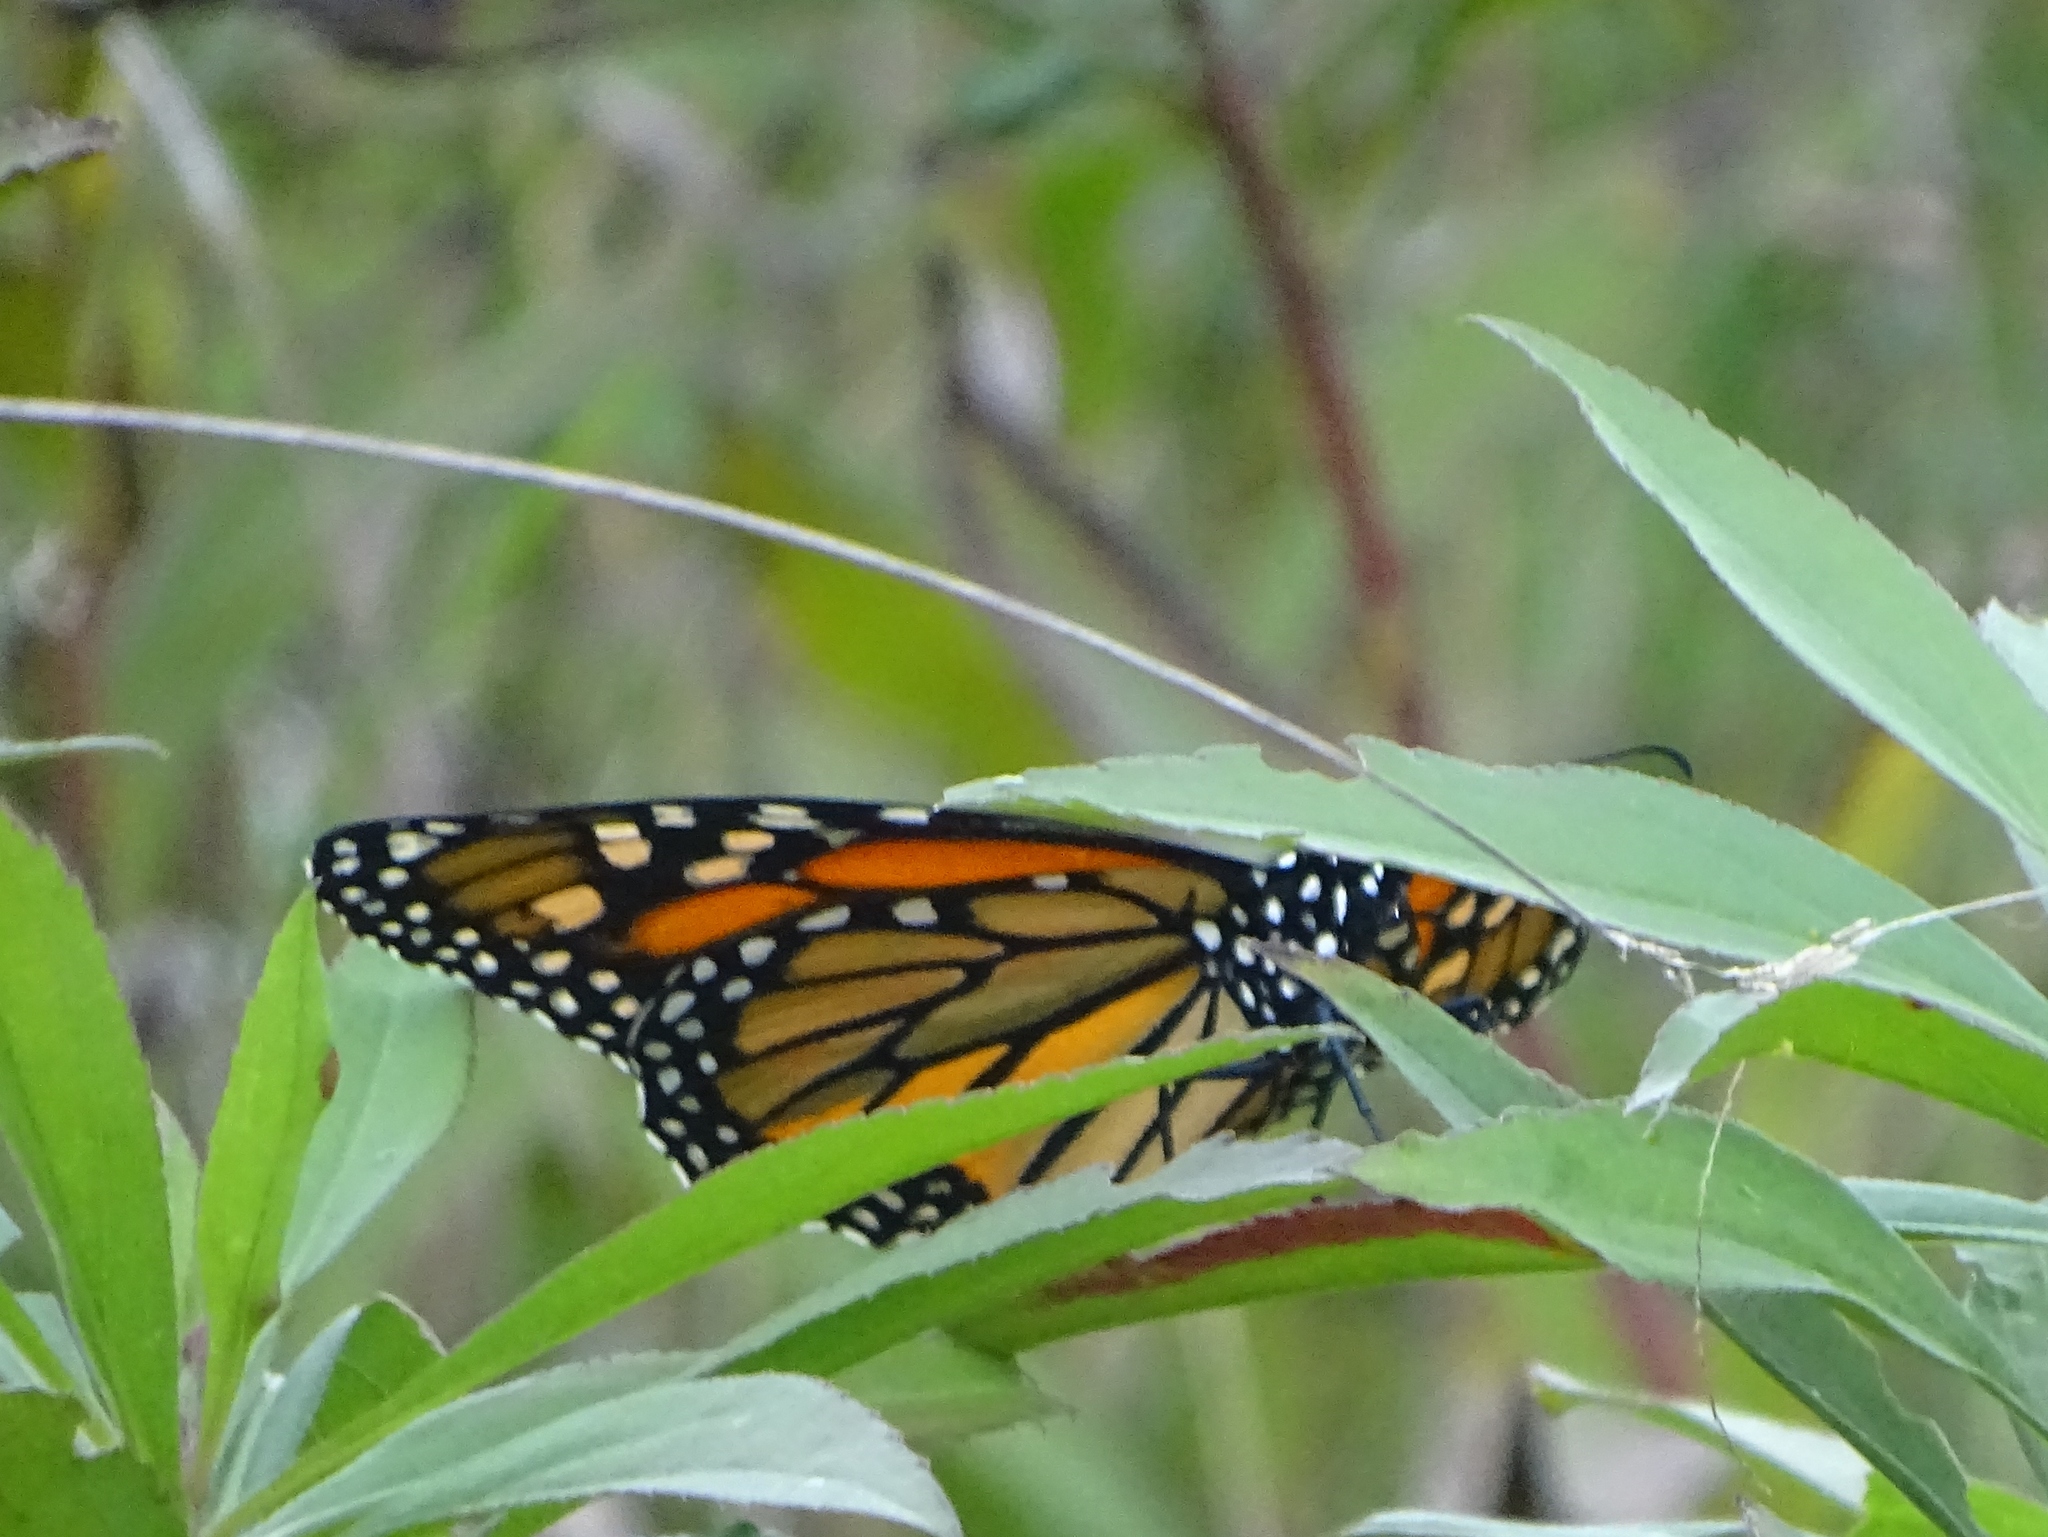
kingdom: Animalia
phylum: Arthropoda
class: Insecta
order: Lepidoptera
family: Nymphalidae
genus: Danaus
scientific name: Danaus plexippus
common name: Monarch
